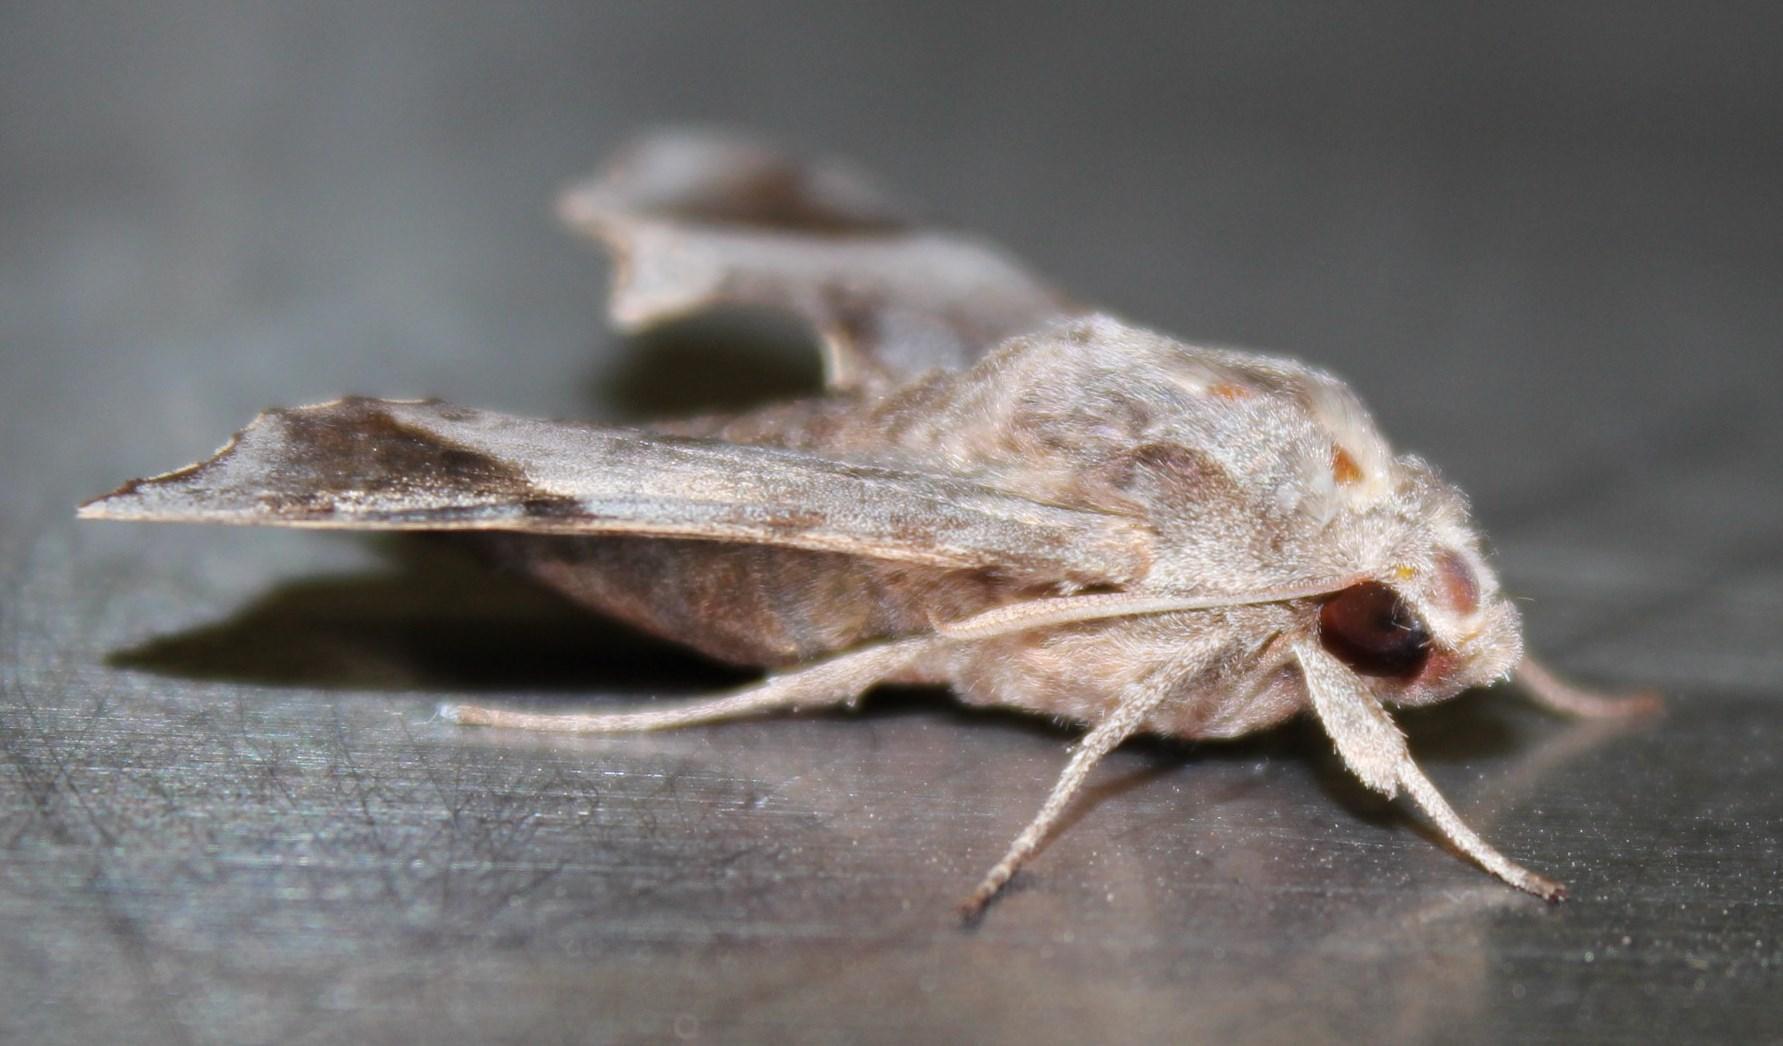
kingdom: Animalia
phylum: Arthropoda
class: Insecta
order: Lepidoptera
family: Sphingidae
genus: Temnora
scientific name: Temnora pylades
